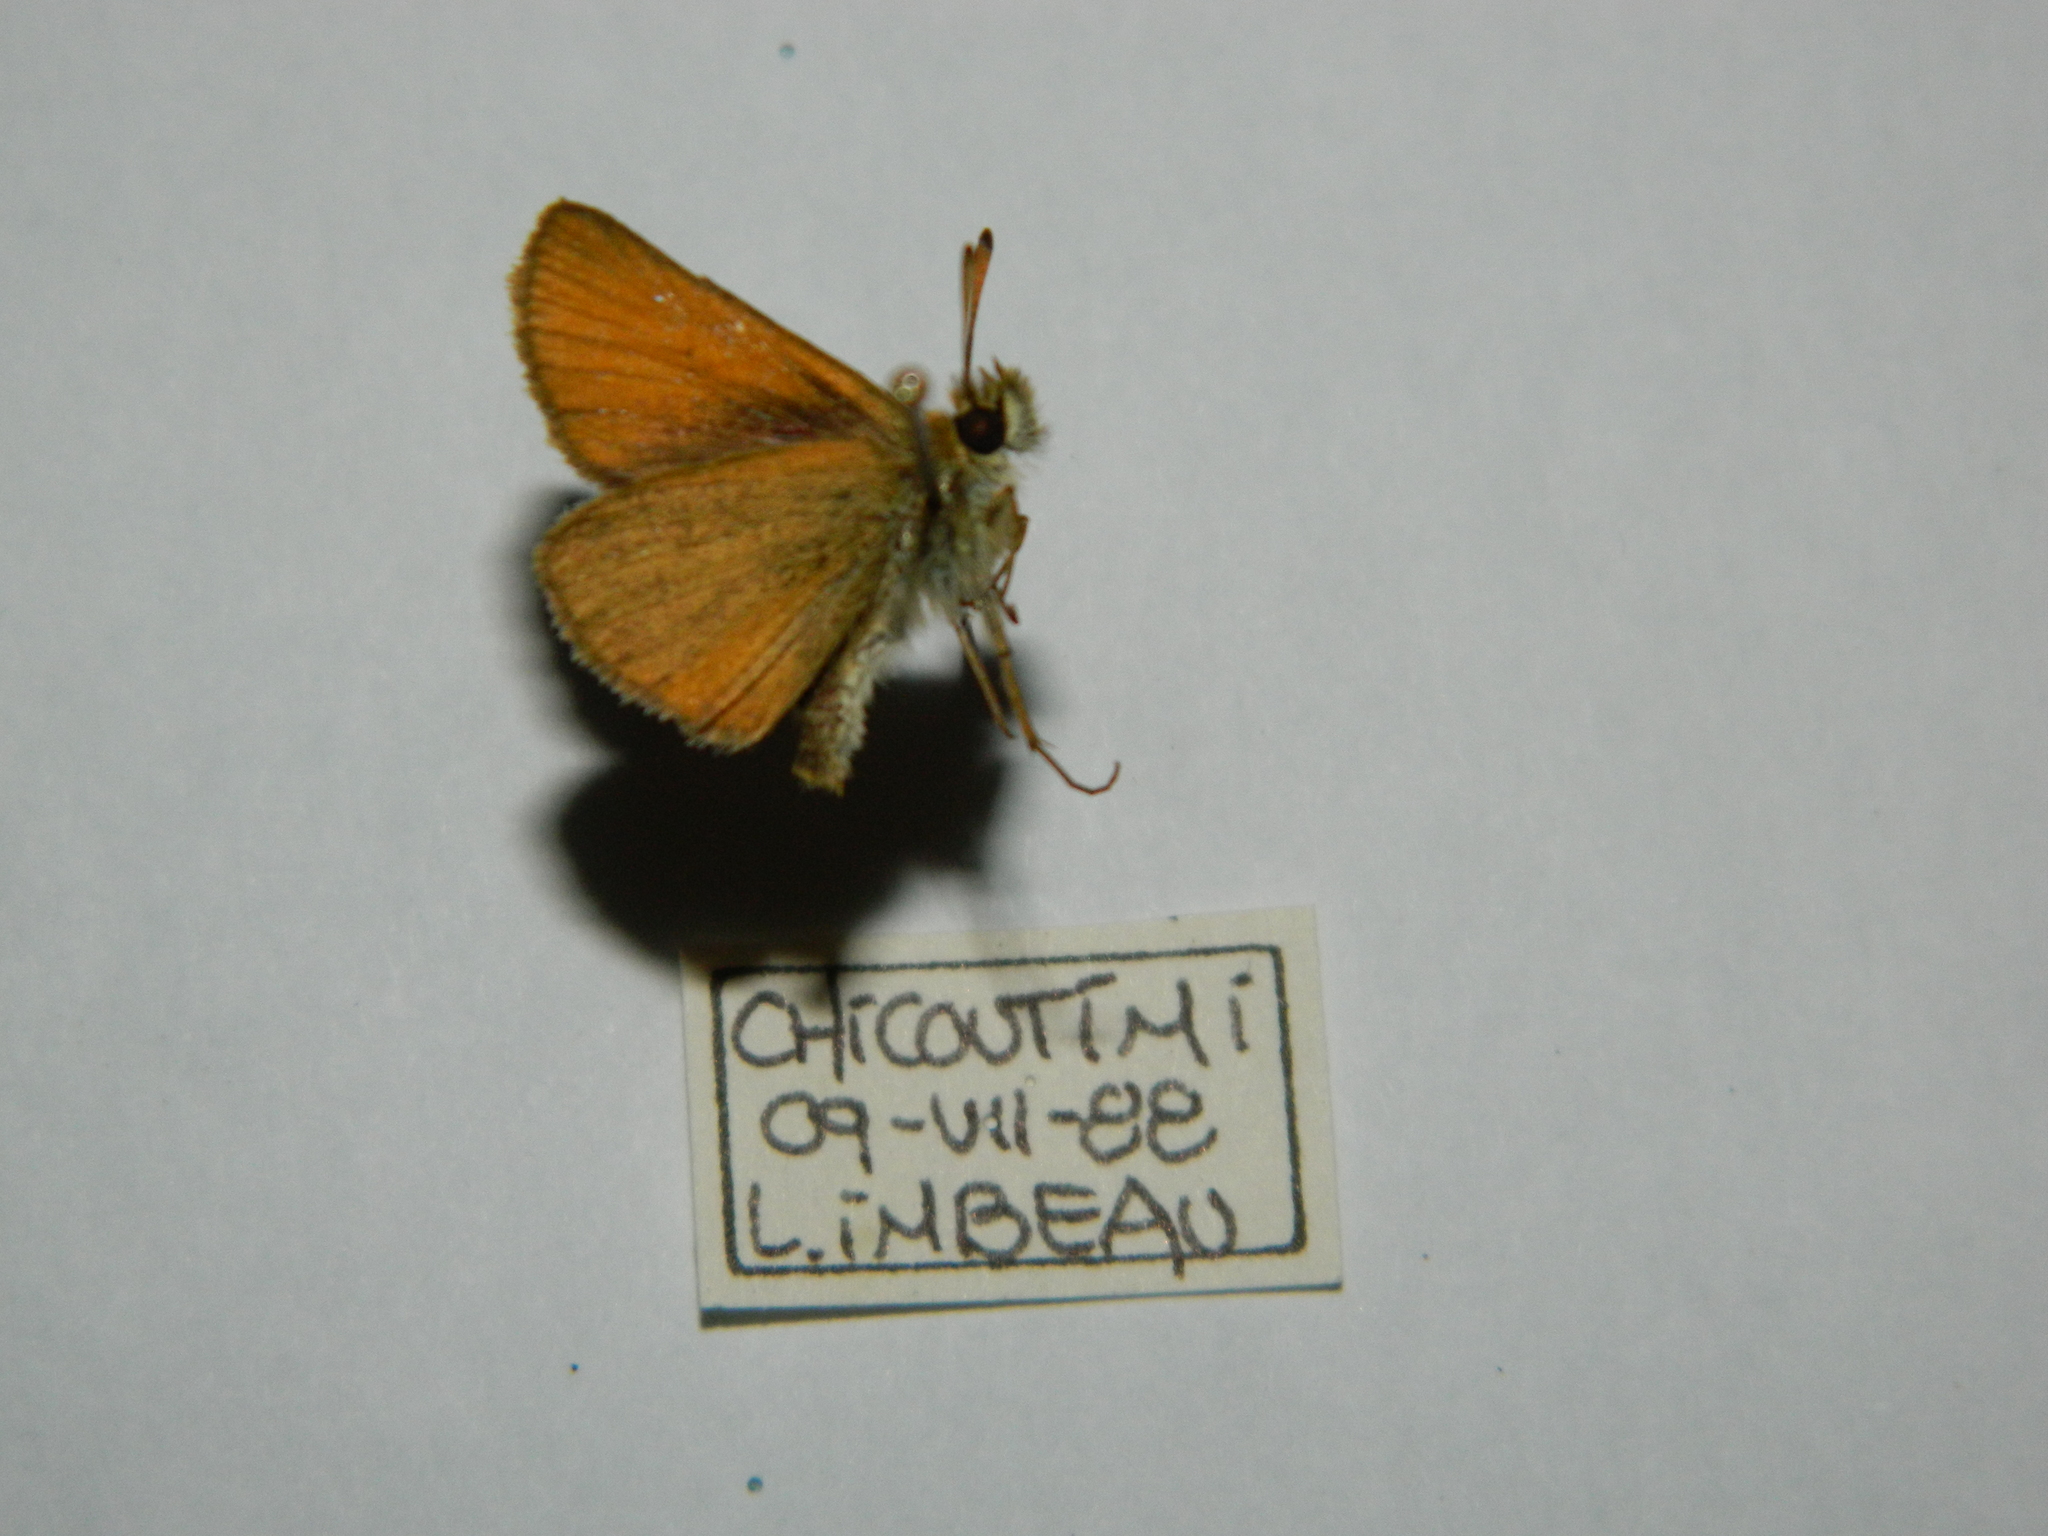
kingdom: Animalia
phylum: Arthropoda
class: Insecta
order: Lepidoptera
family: Hesperiidae
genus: Thymelicus
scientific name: Thymelicus lineola
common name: Essex skipper
